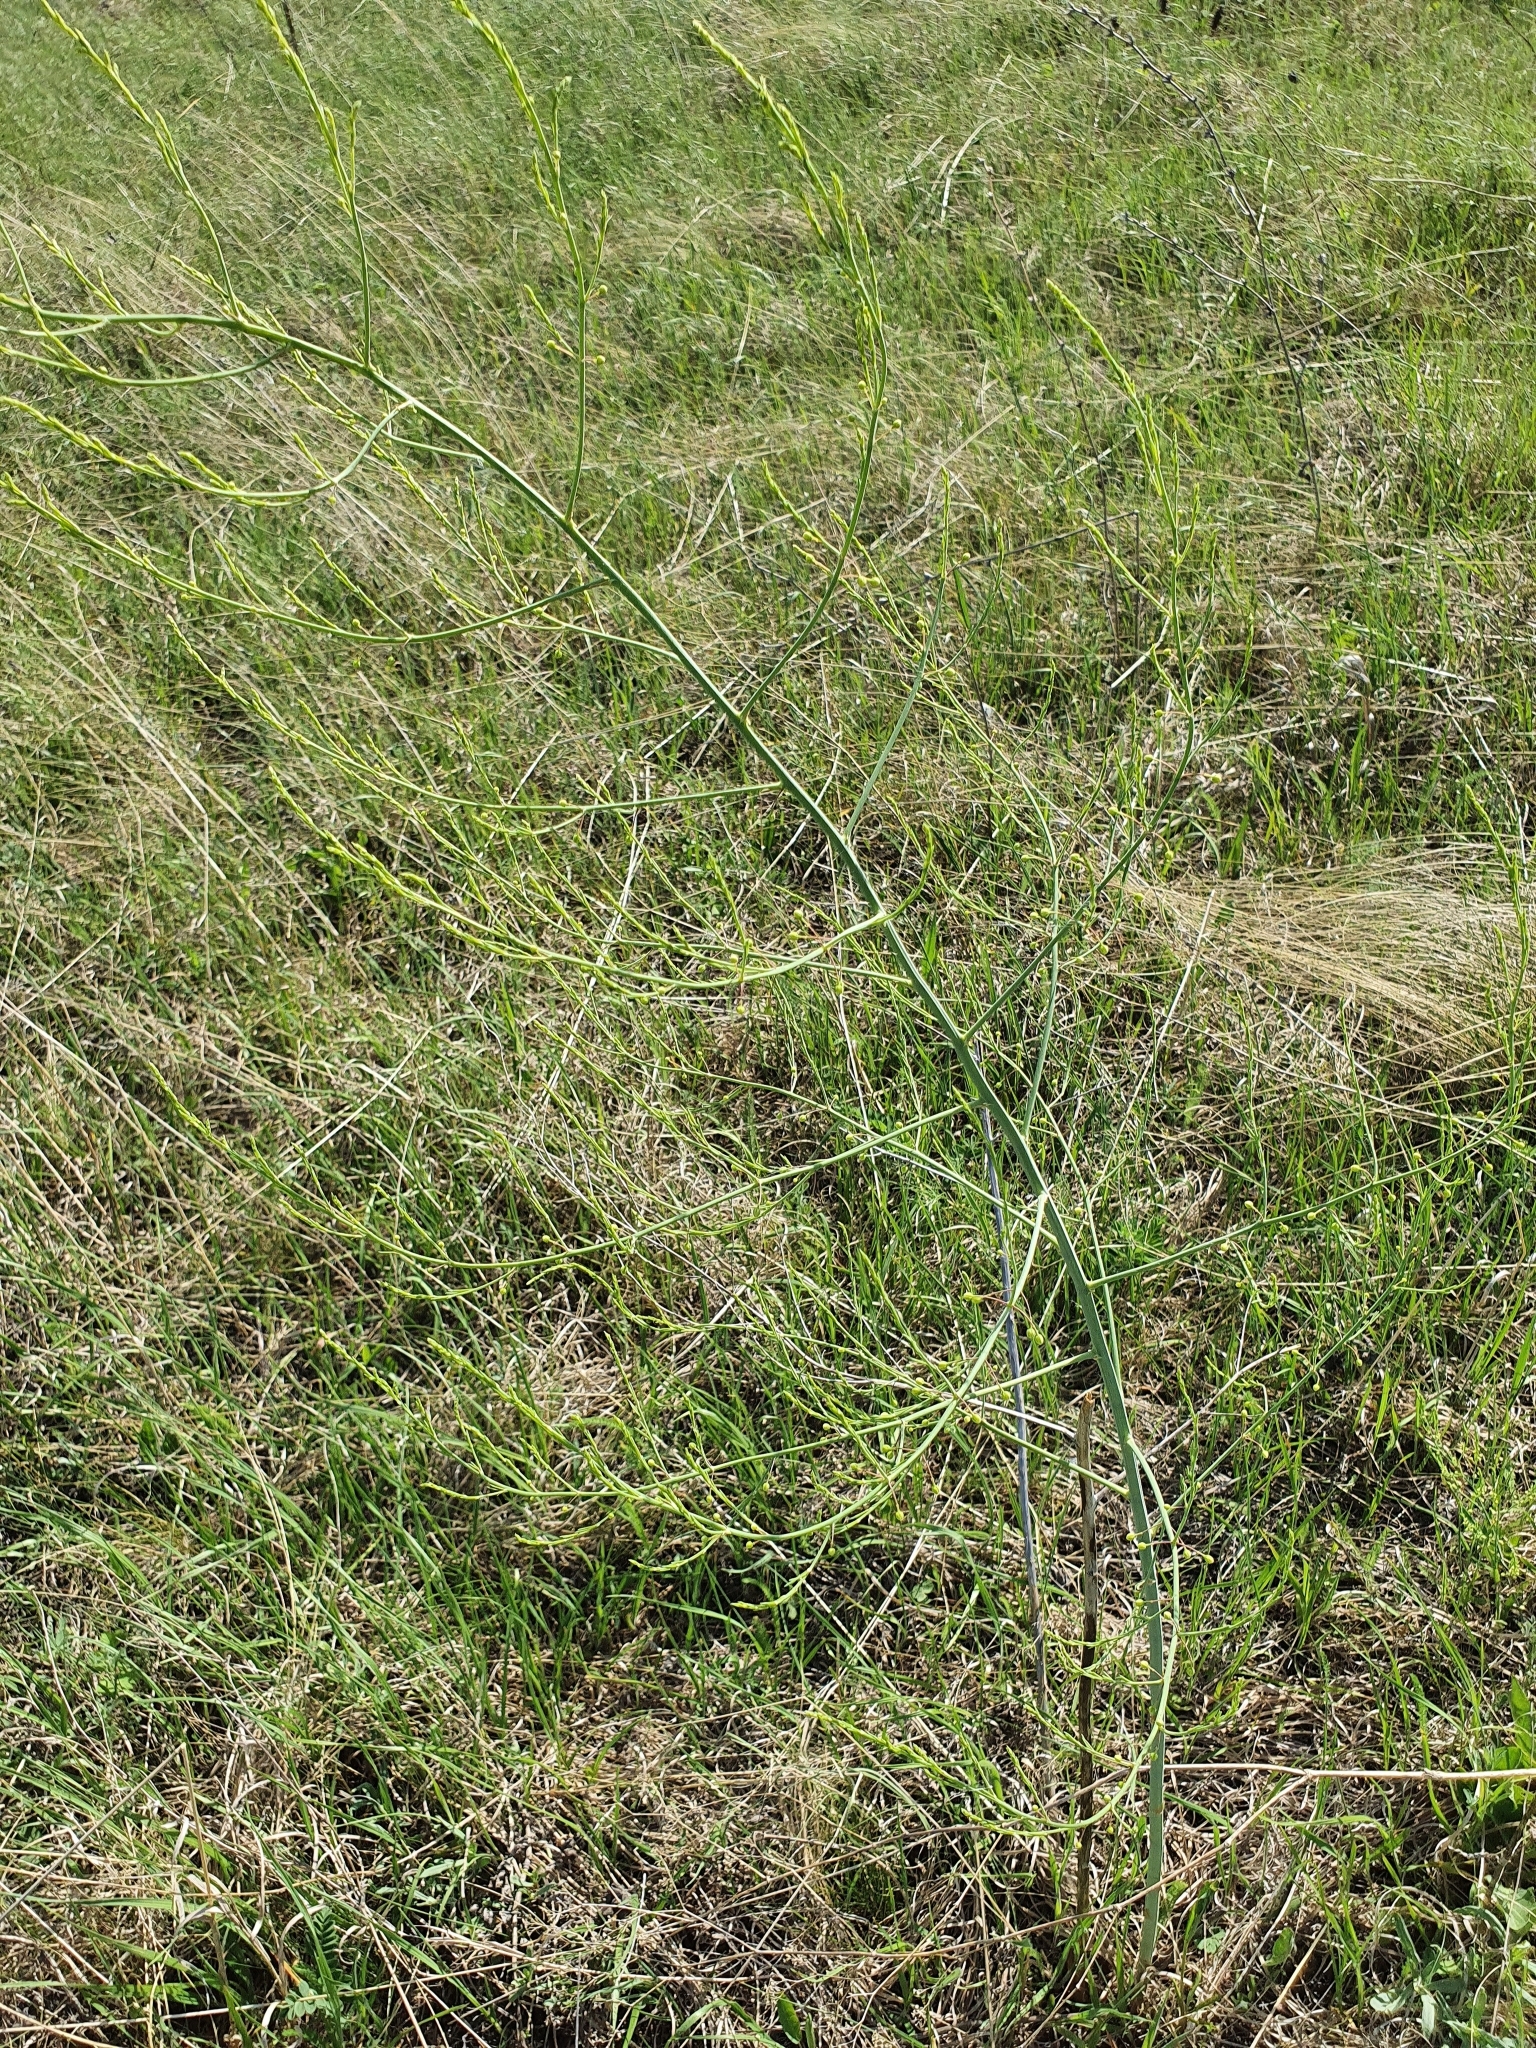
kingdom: Plantae
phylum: Tracheophyta
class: Liliopsida
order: Asparagales
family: Asparagaceae
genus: Asparagus
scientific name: Asparagus officinalis
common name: Garden asparagus
